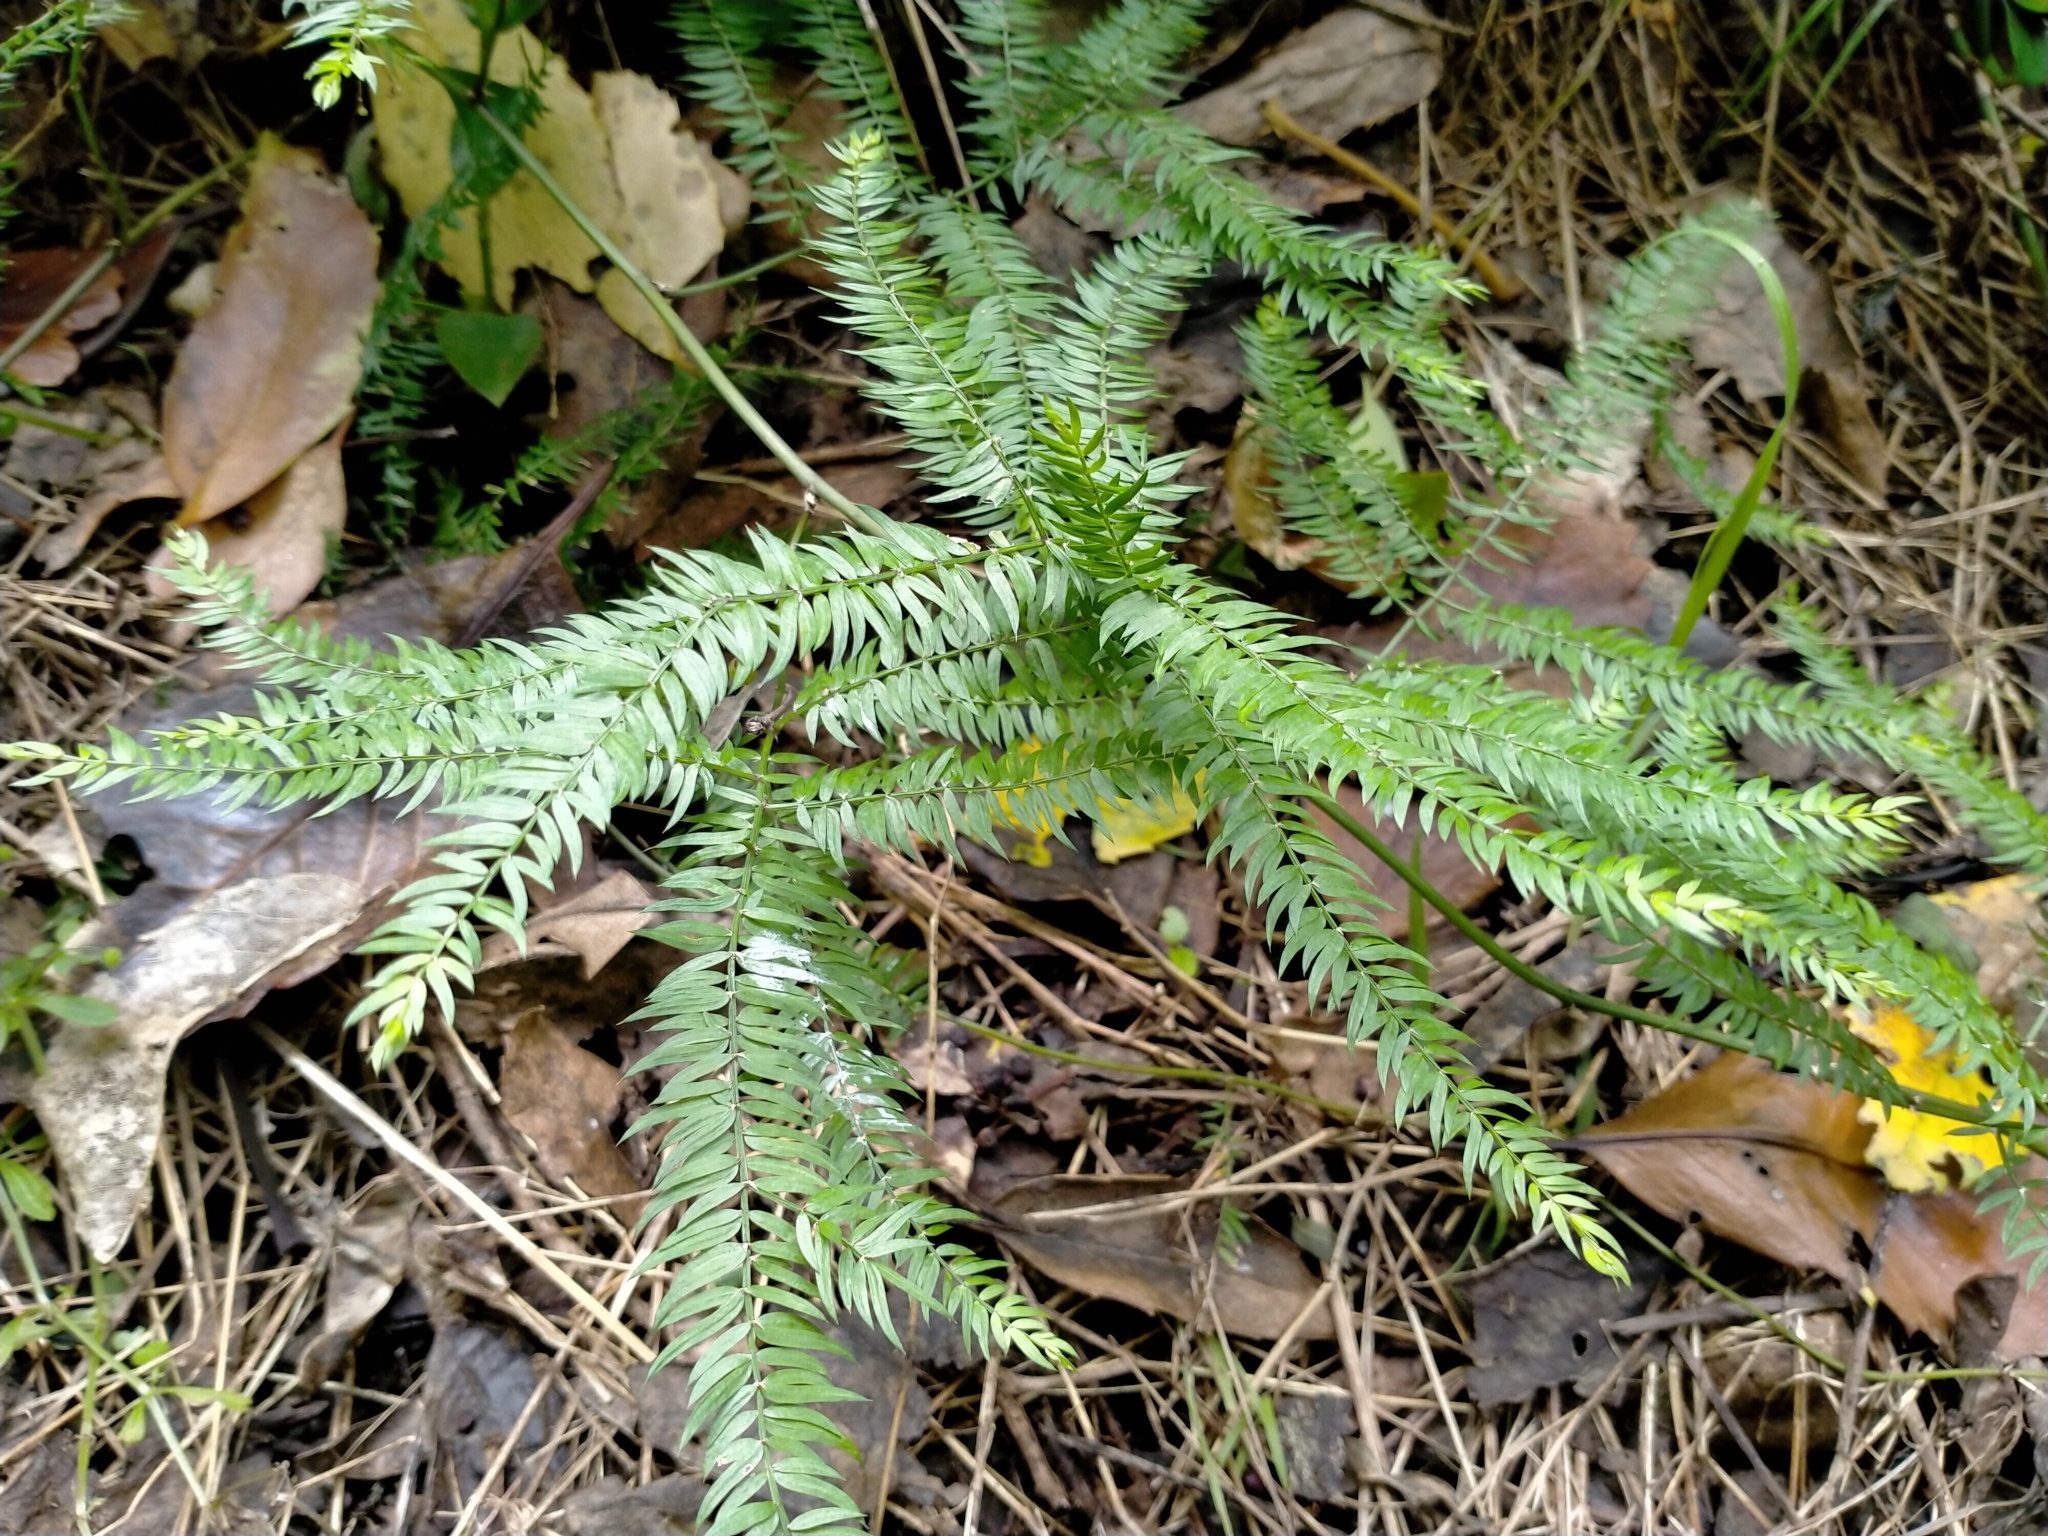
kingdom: Plantae
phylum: Tracheophyta
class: Liliopsida
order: Asparagales
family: Asparagaceae
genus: Asparagus
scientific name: Asparagus scandens
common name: Asparagus-fern
